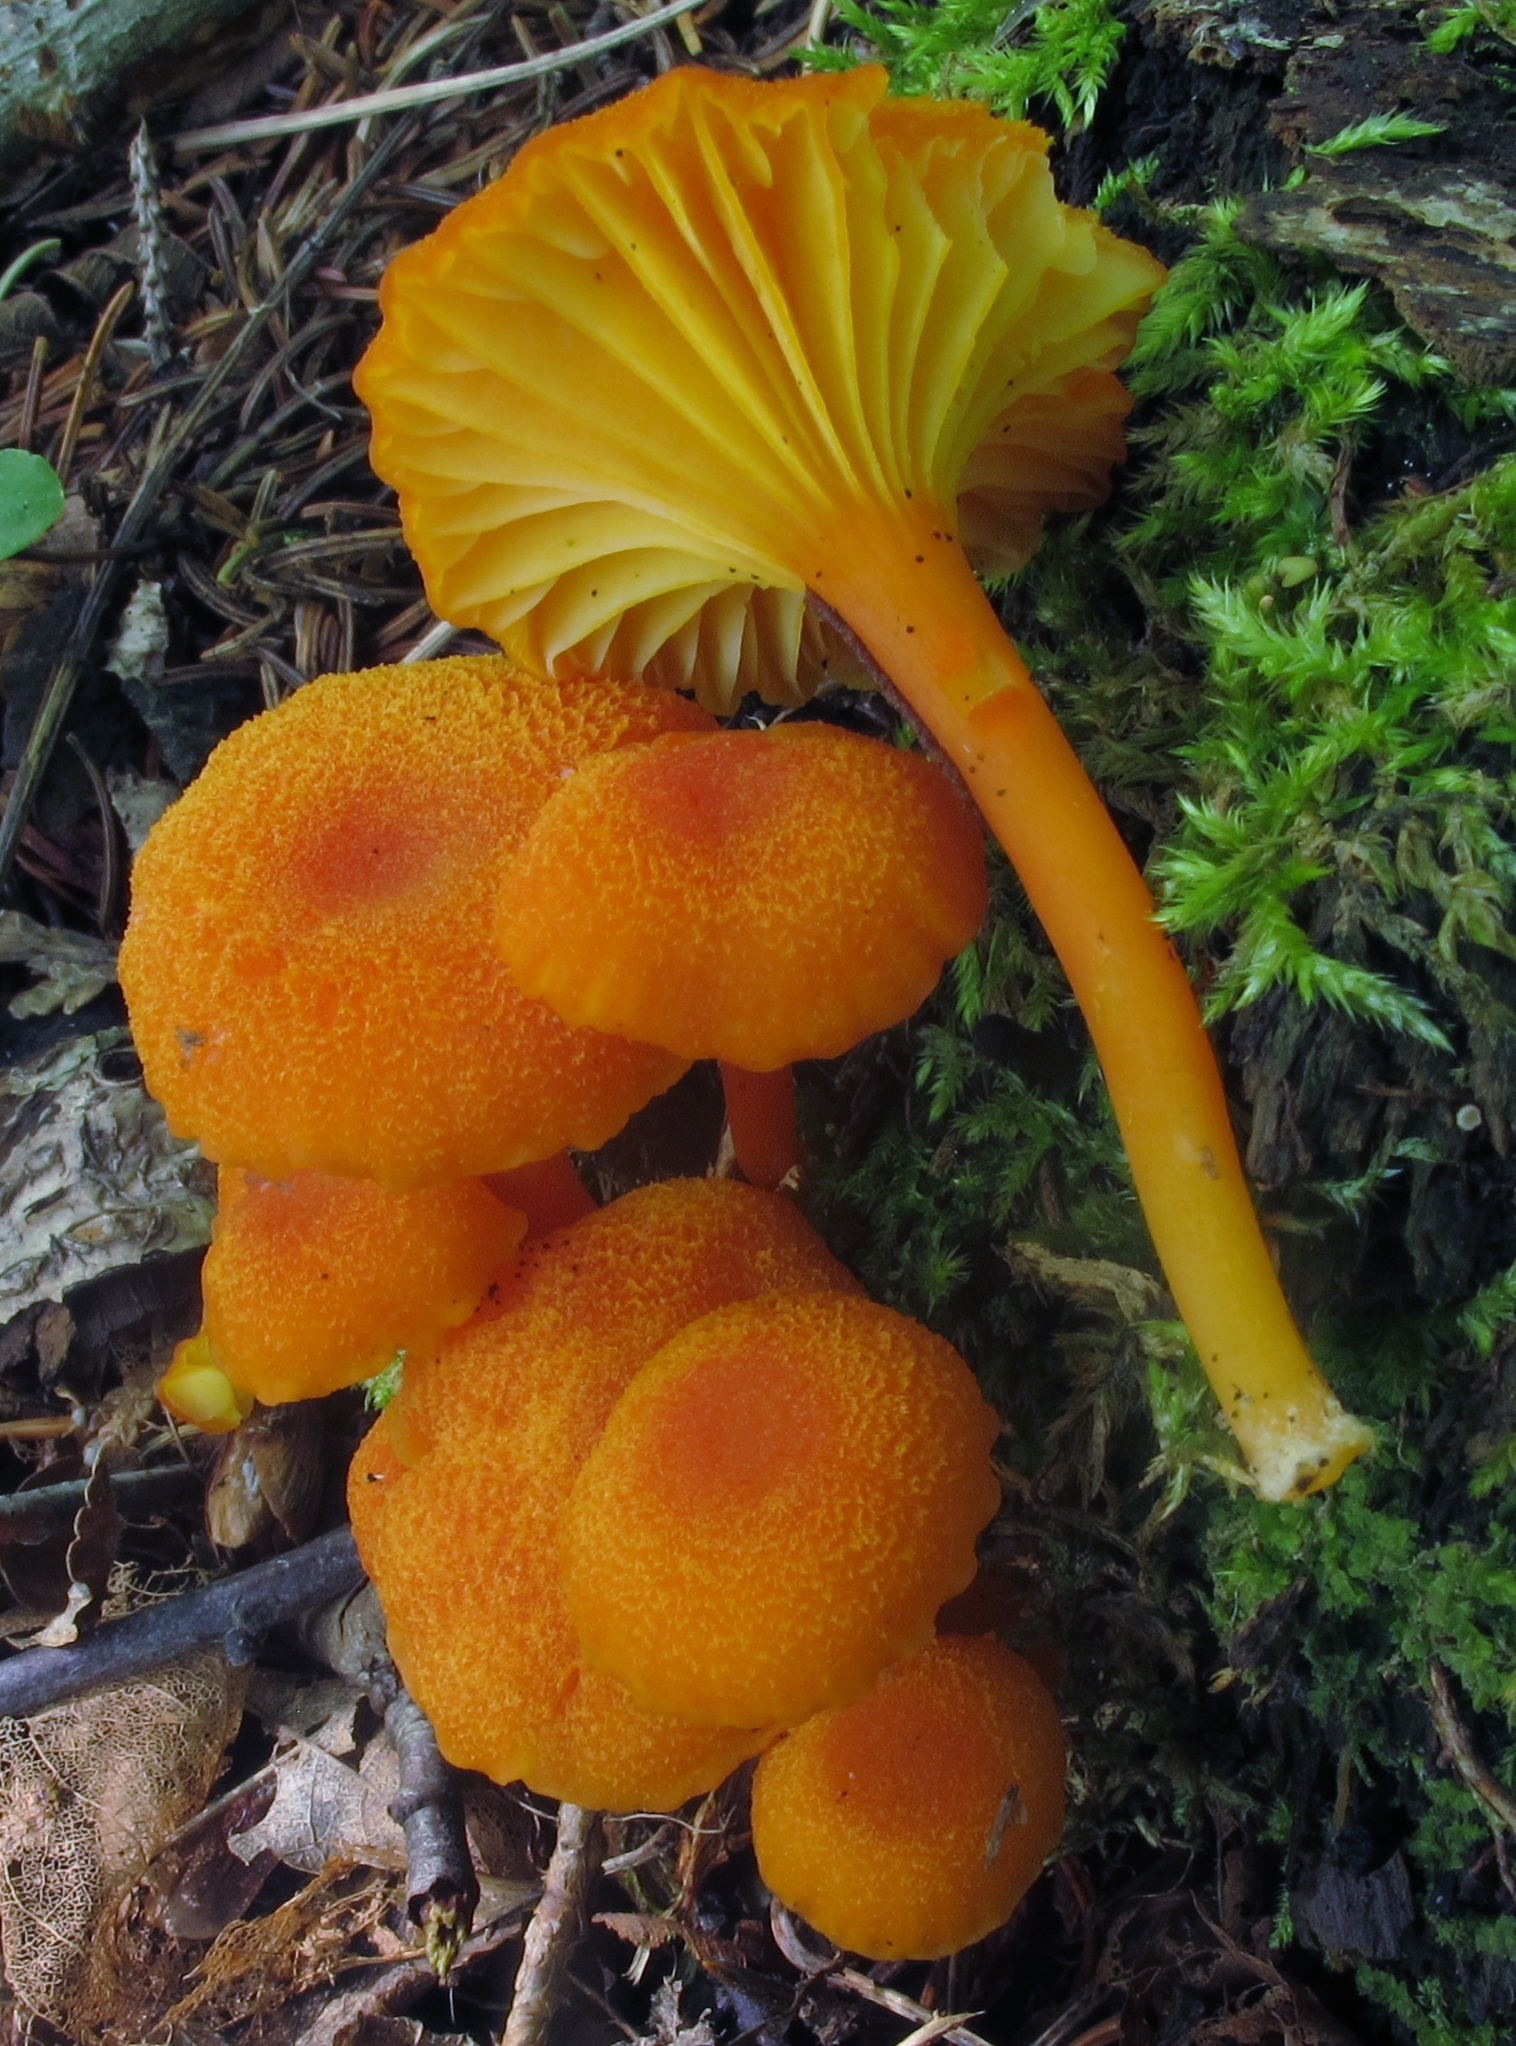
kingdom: Fungi
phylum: Basidiomycota
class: Agaricomycetes
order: Agaricales
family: Hygrophoraceae
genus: Hygrocybe
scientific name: Hygrocybe cantharellus
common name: Goblet waxcap
